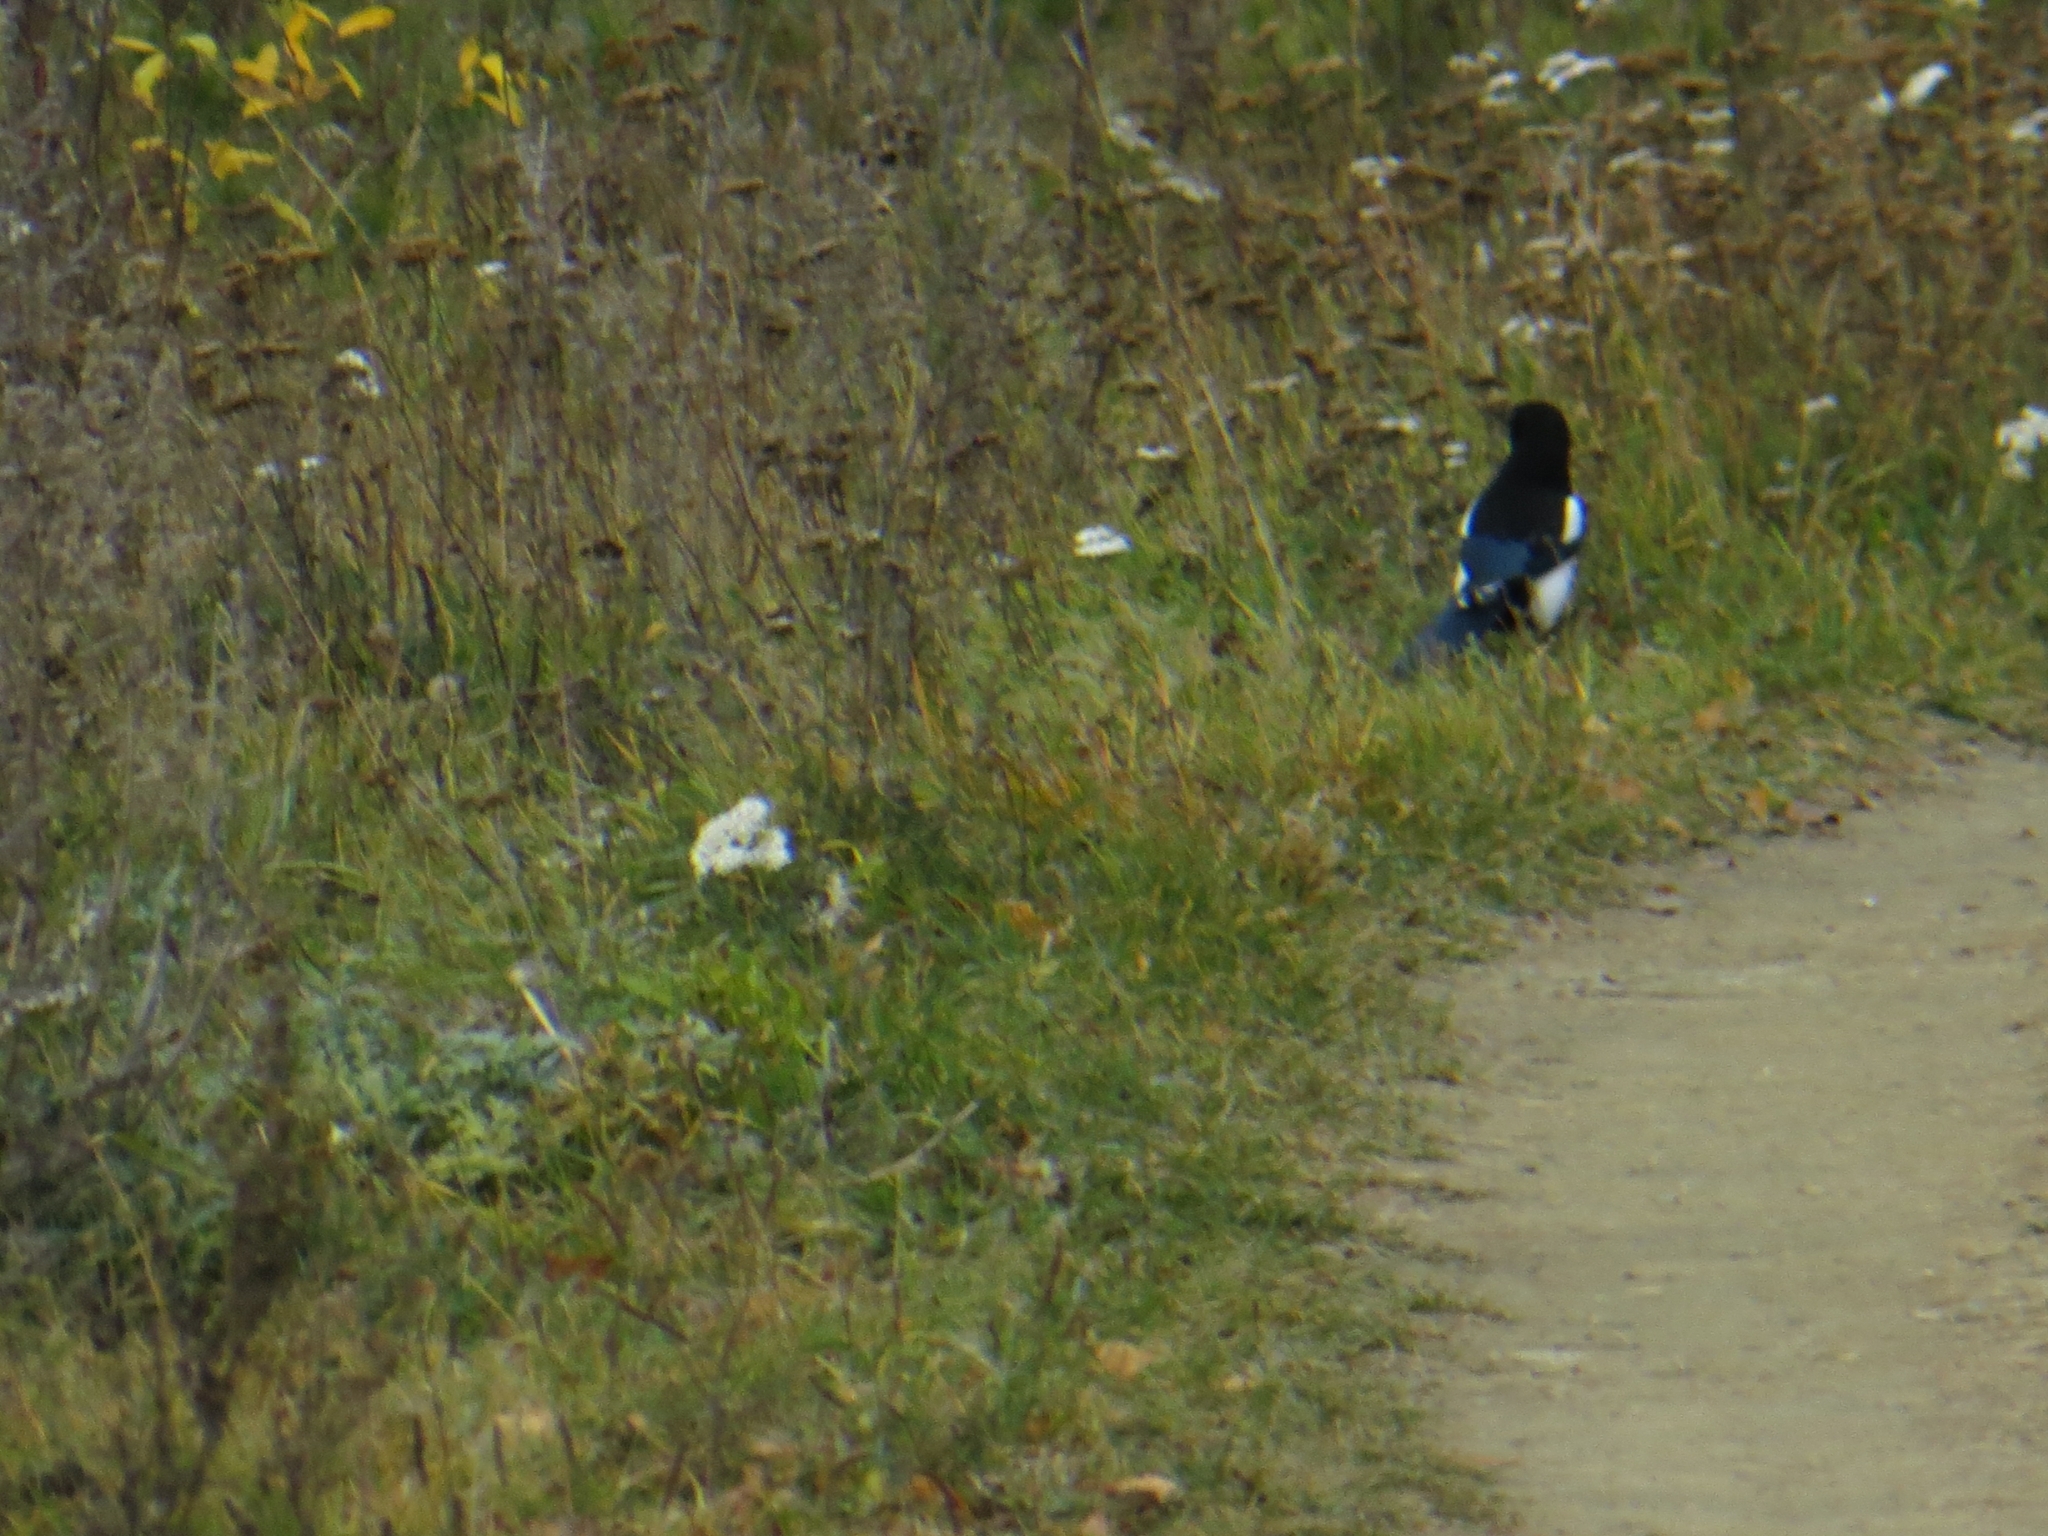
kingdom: Animalia
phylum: Chordata
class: Aves
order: Passeriformes
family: Corvidae
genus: Pica
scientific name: Pica pica
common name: Eurasian magpie
